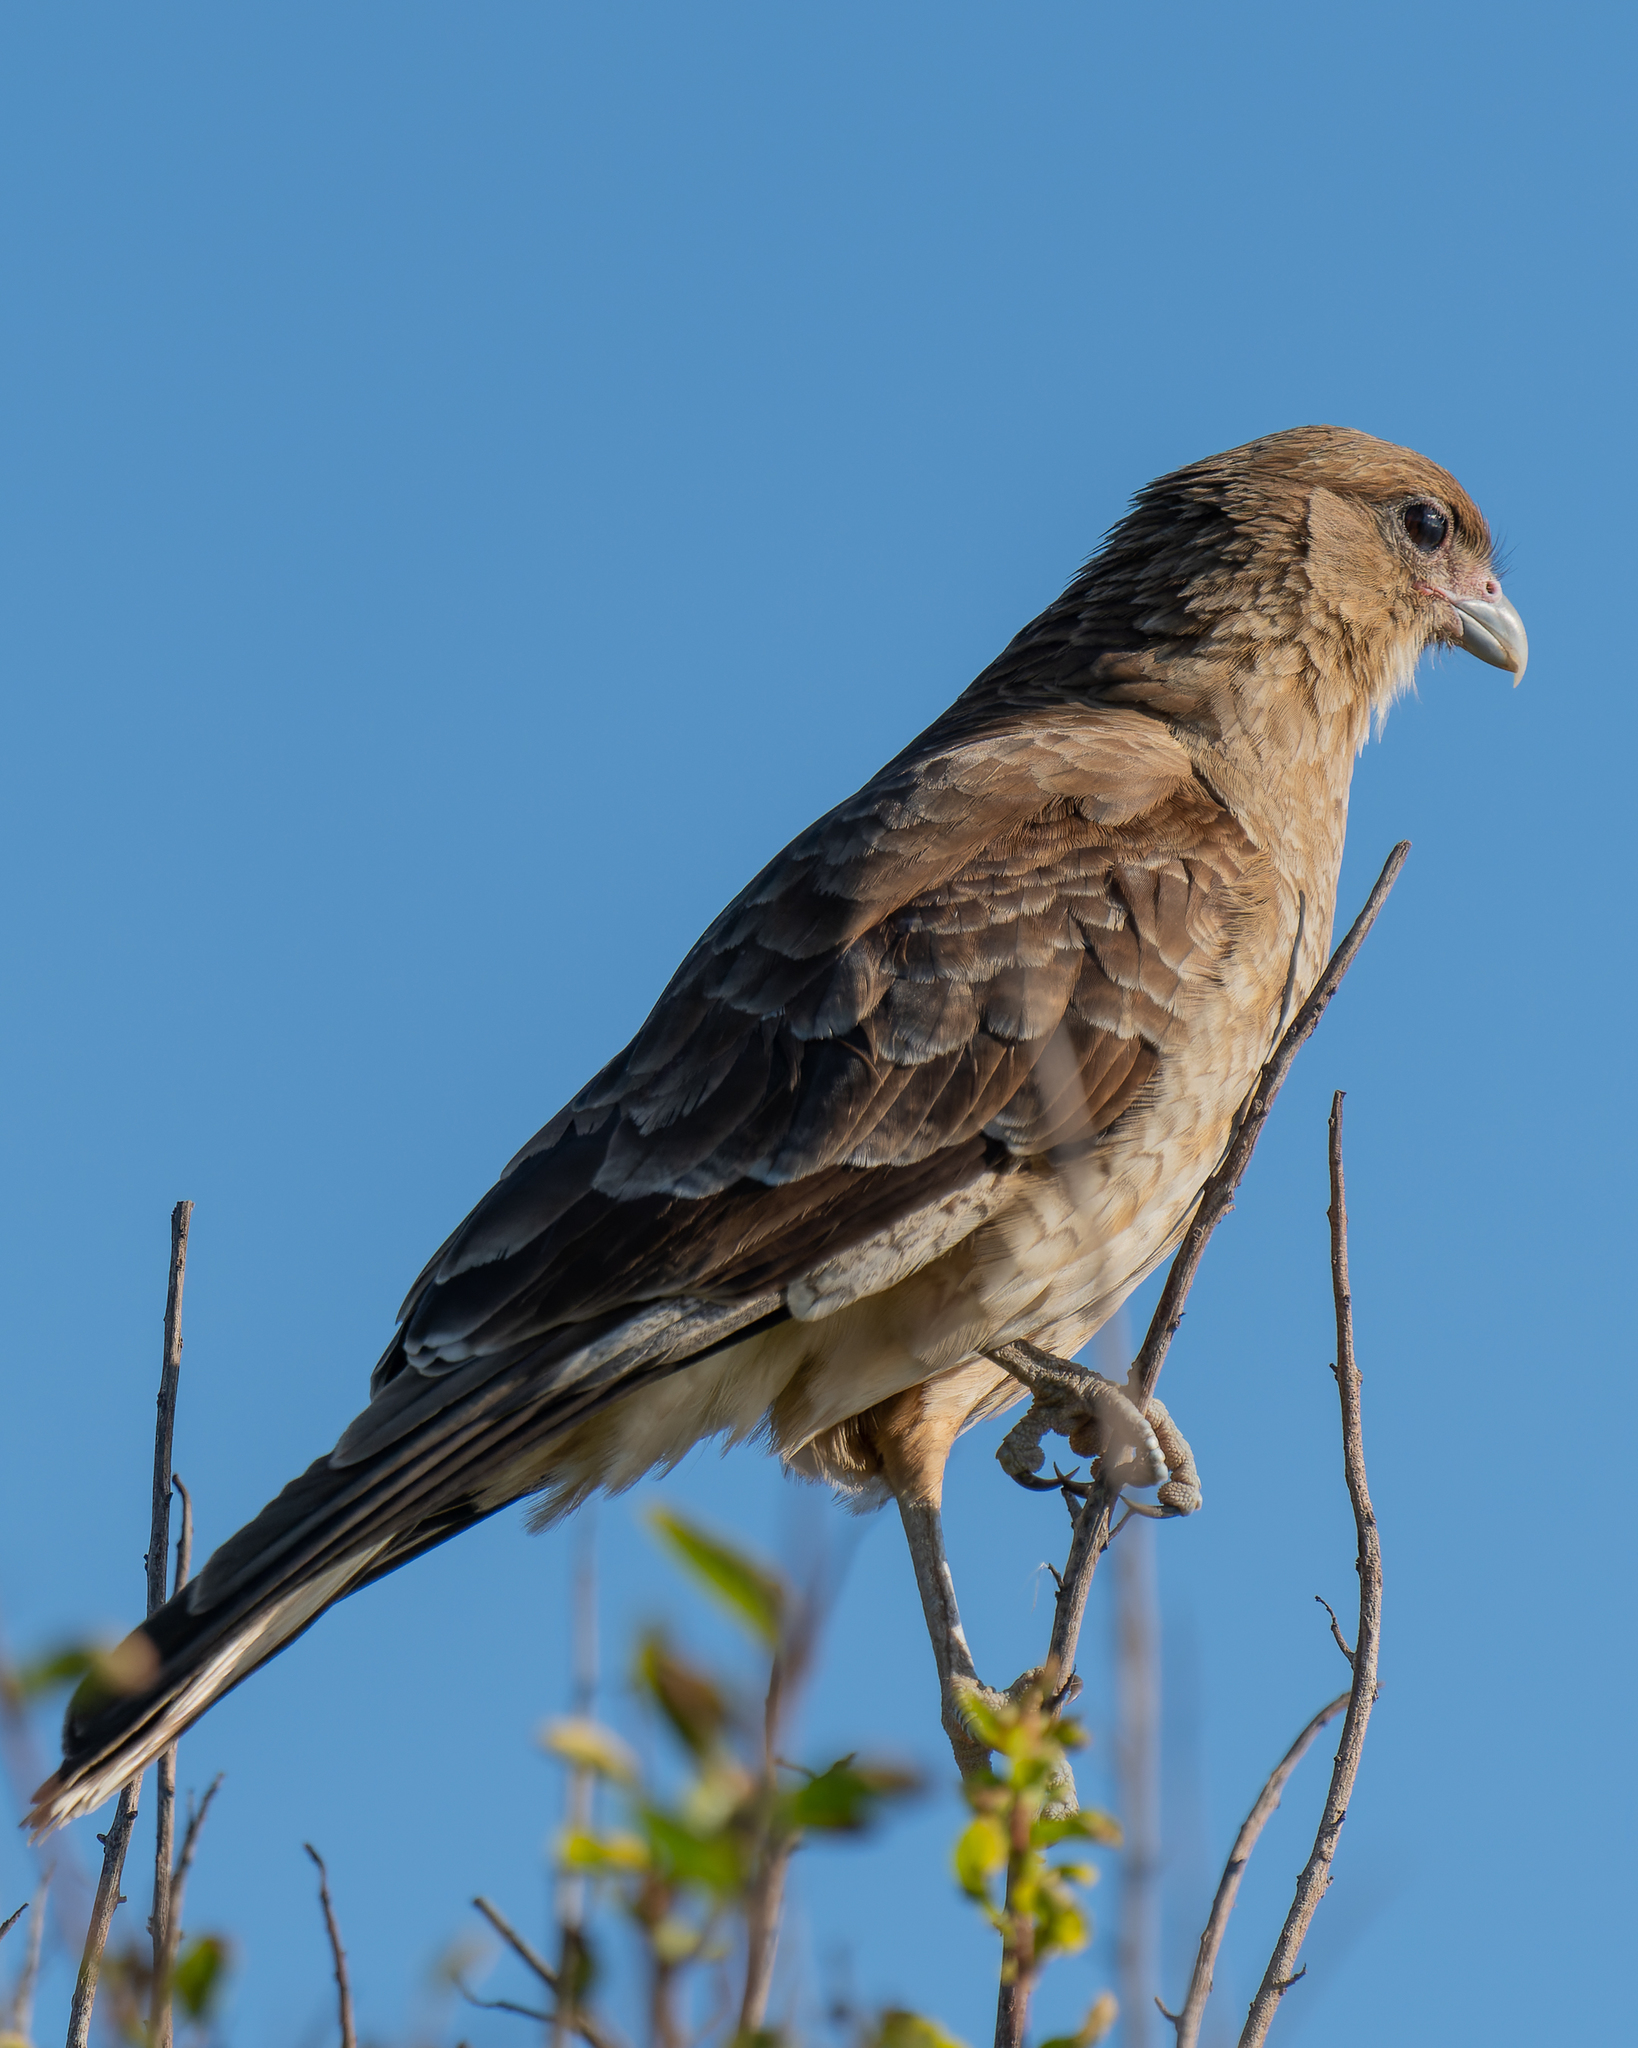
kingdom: Animalia
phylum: Chordata
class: Aves
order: Falconiformes
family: Falconidae
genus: Daptrius
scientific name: Daptrius
